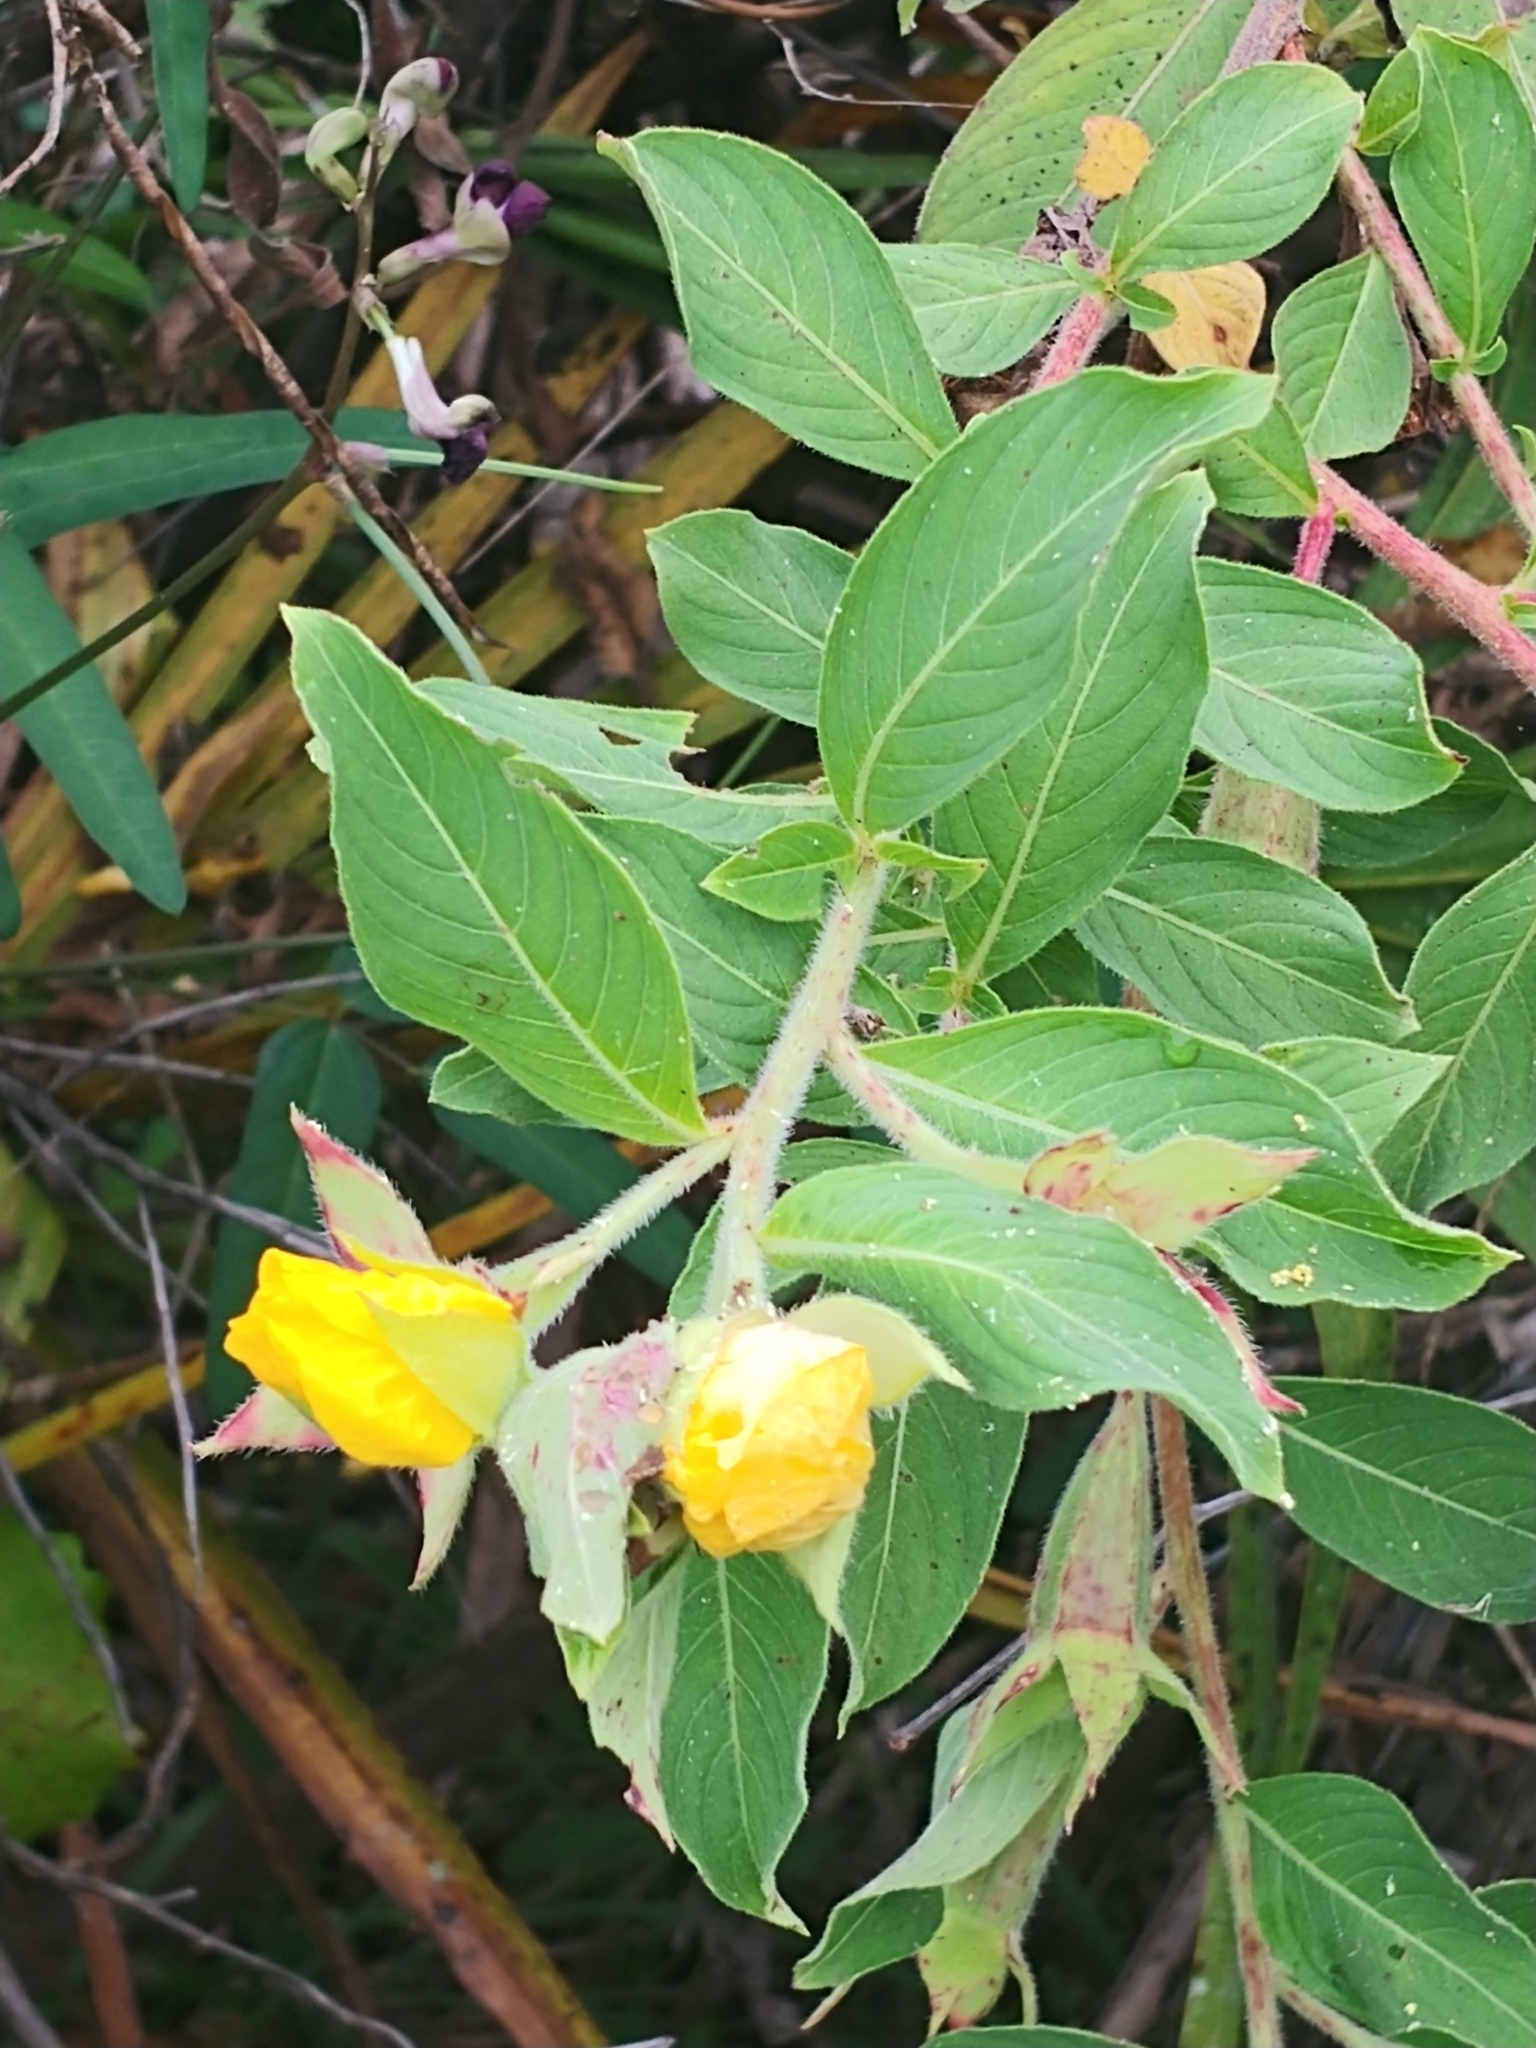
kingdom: Plantae
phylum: Tracheophyta
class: Magnoliopsida
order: Myrtales
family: Onagraceae
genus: Ludwigia
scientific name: Ludwigia peruviana
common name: Peruvian primrose-willow
